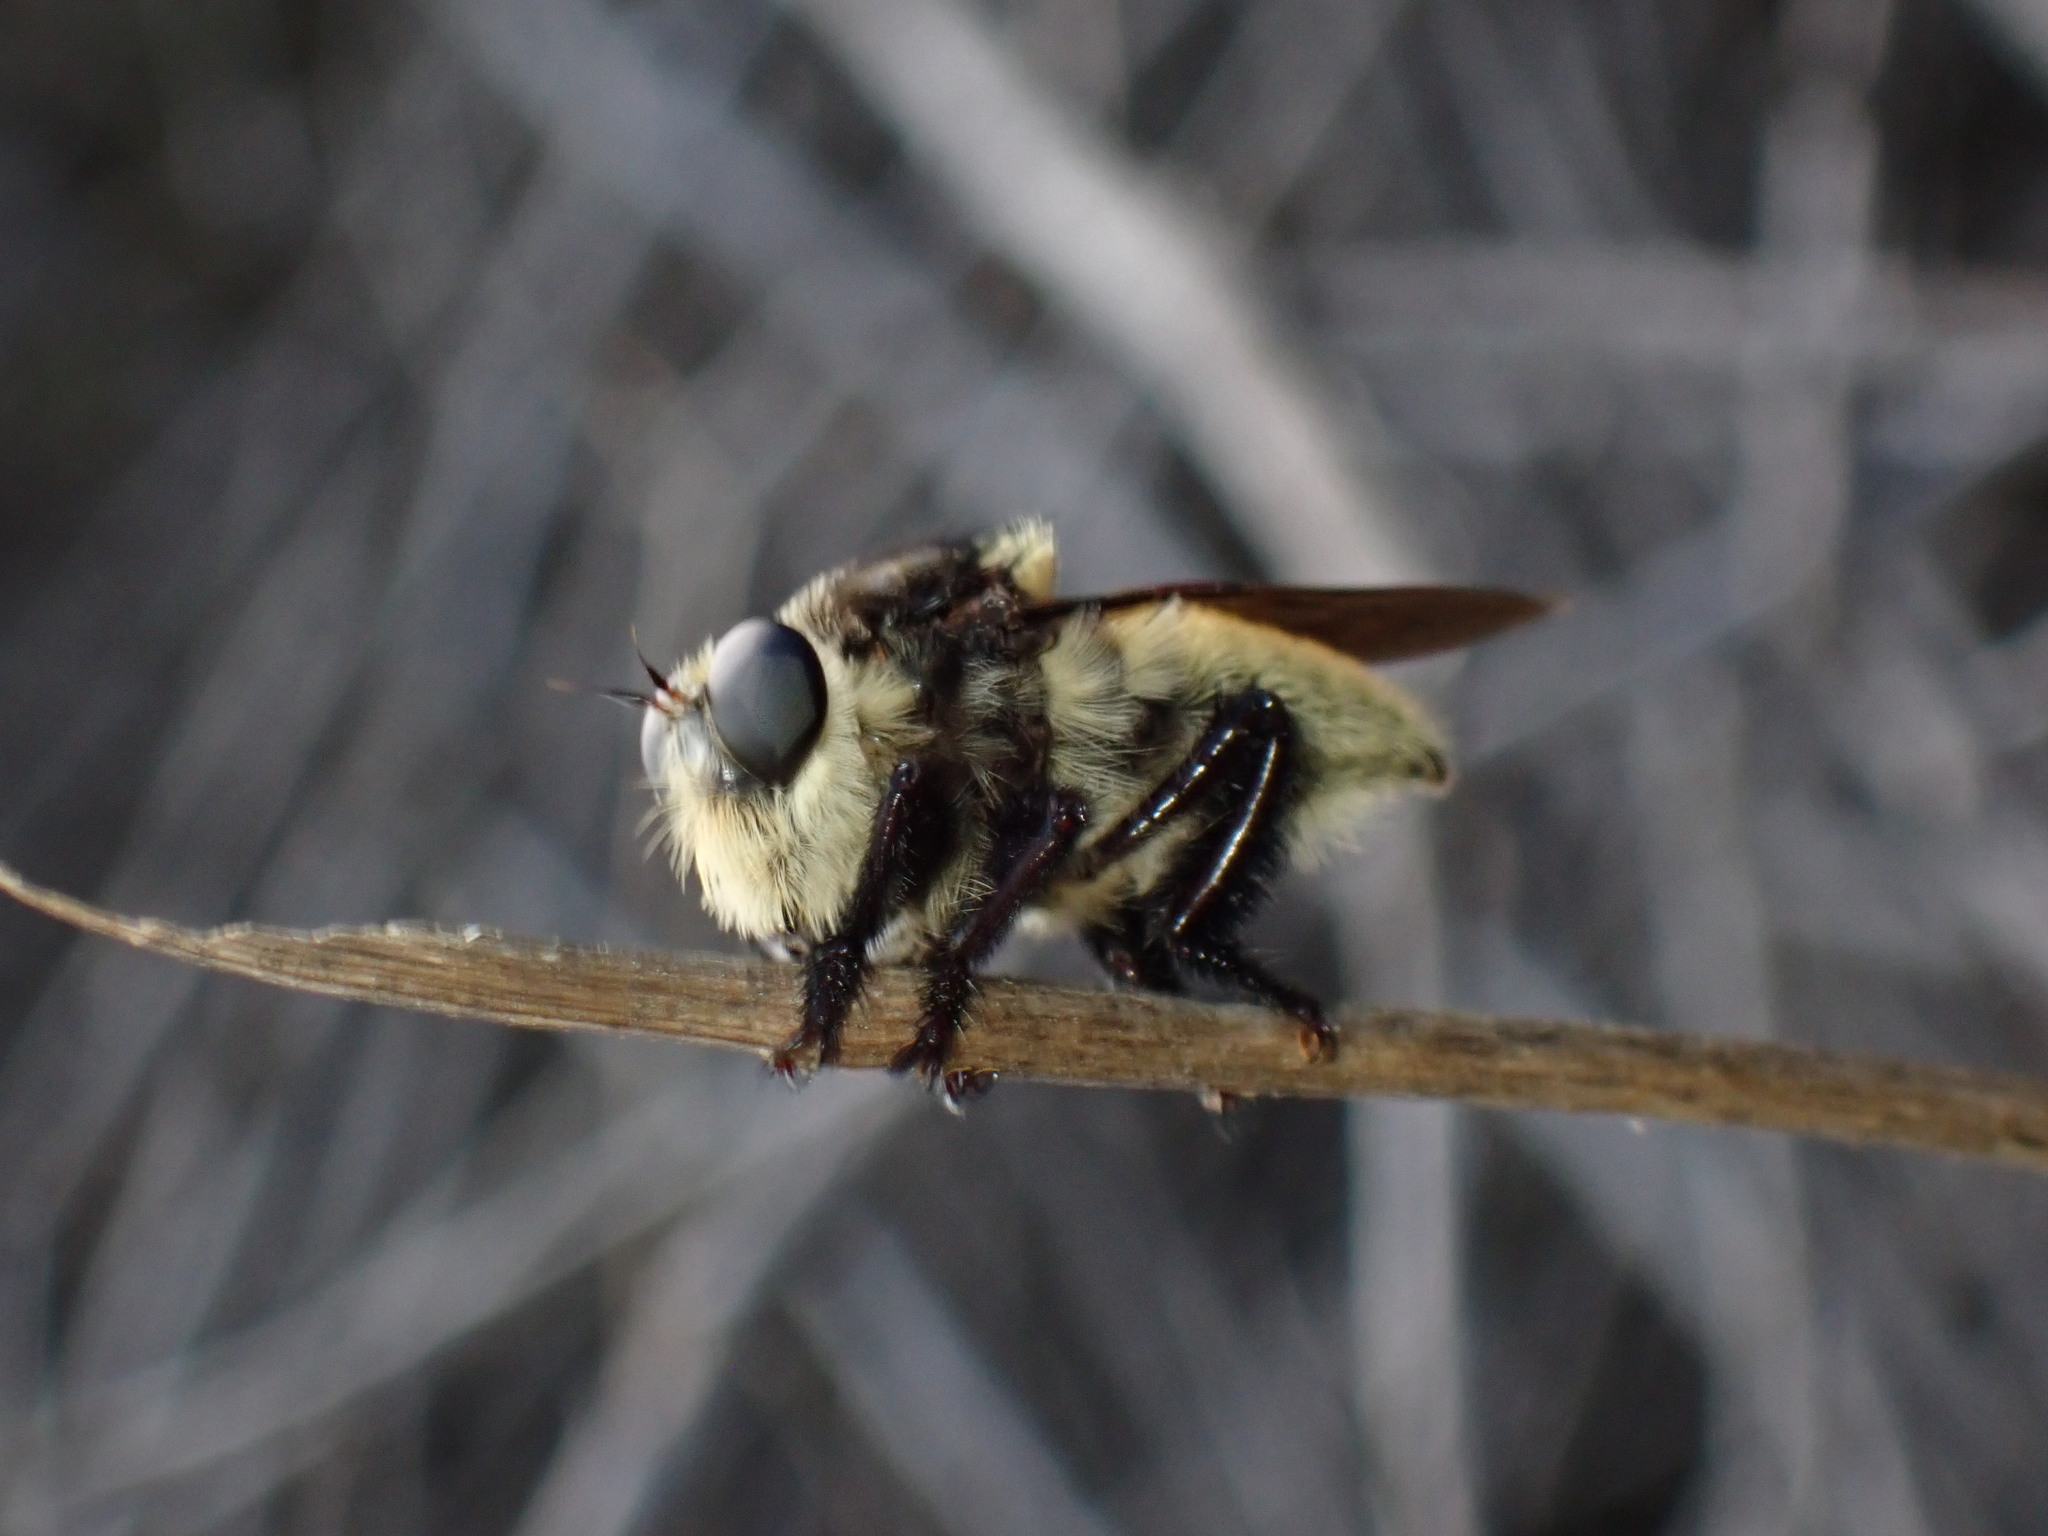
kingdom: Animalia
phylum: Arthropoda
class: Insecta
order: Diptera
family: Asilidae
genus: Mallophora
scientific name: Mallophora fautrix
